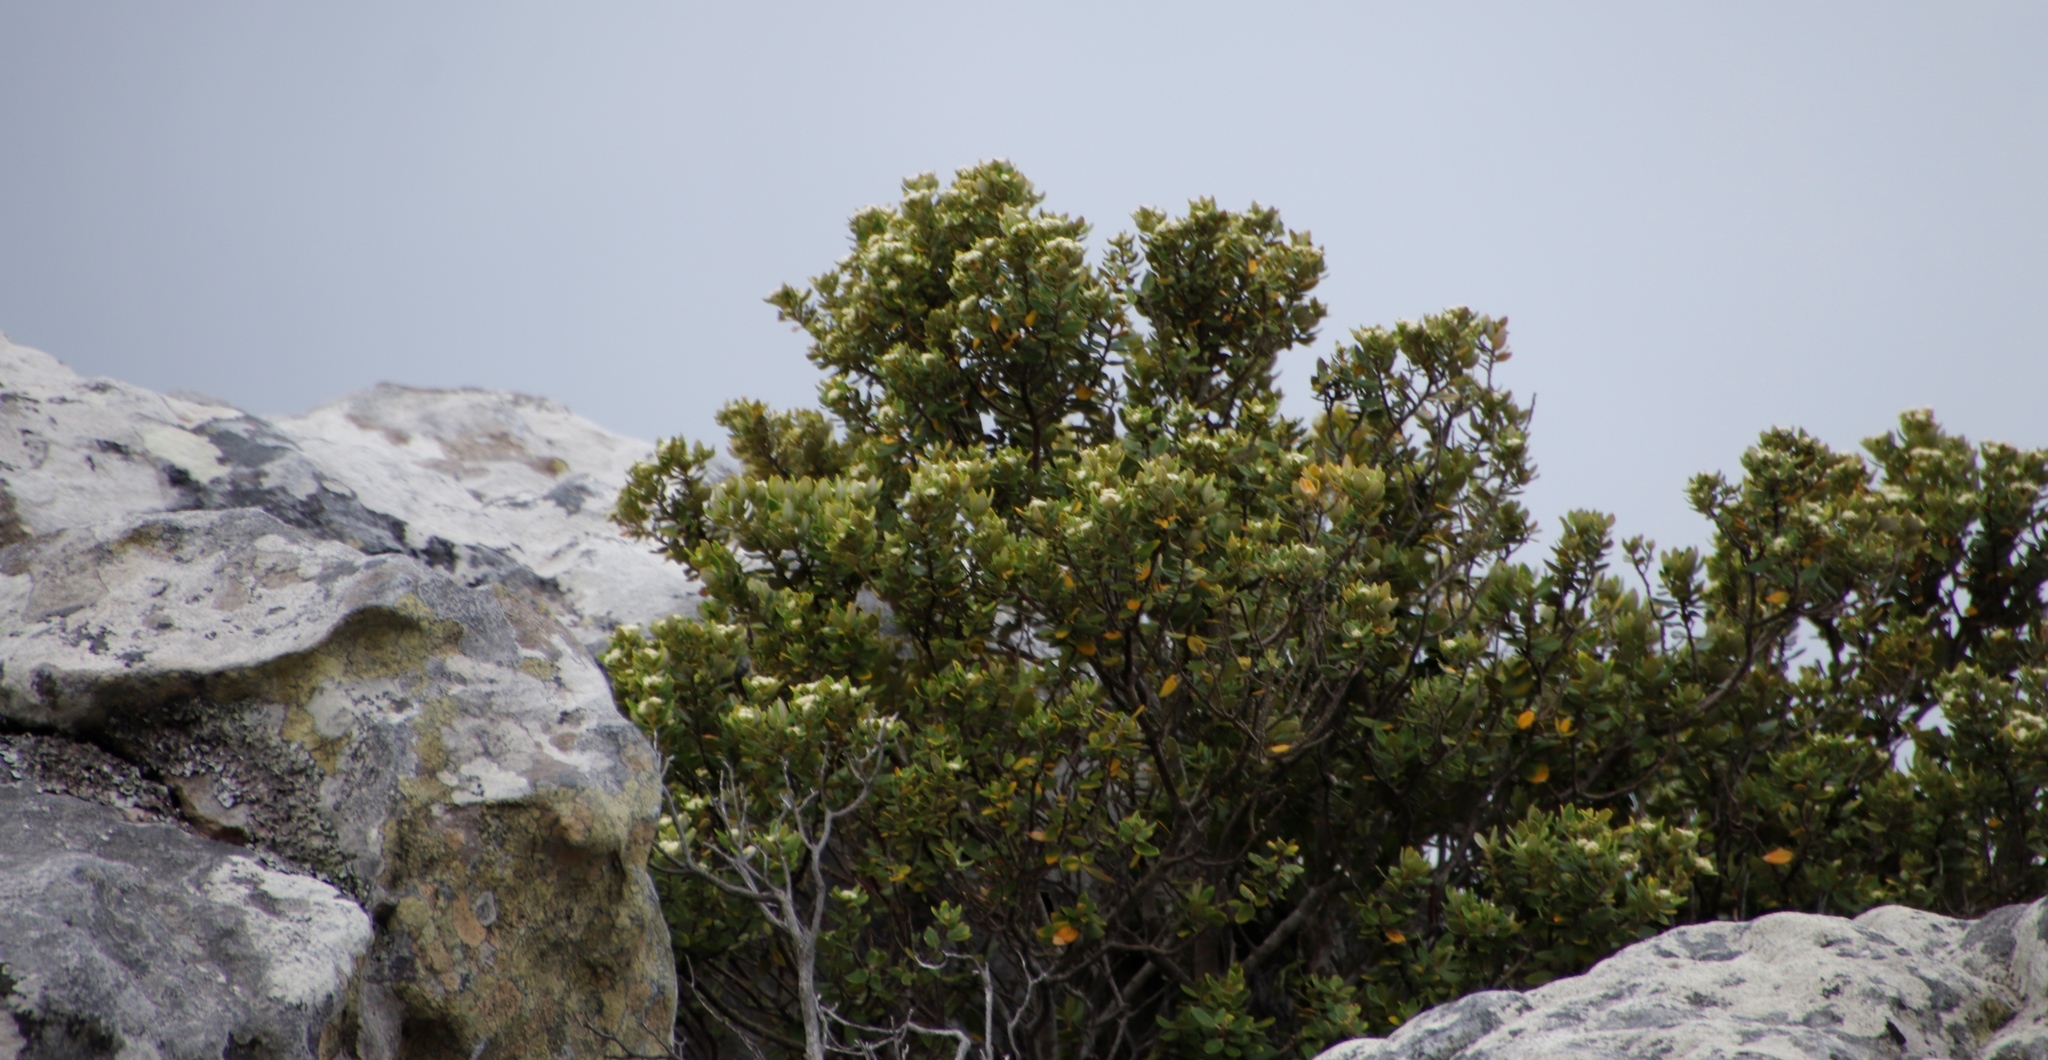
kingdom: Plantae
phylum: Tracheophyta
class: Magnoliopsida
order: Rosales
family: Rhamnaceae
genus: Phylica
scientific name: Phylica buxifolia
